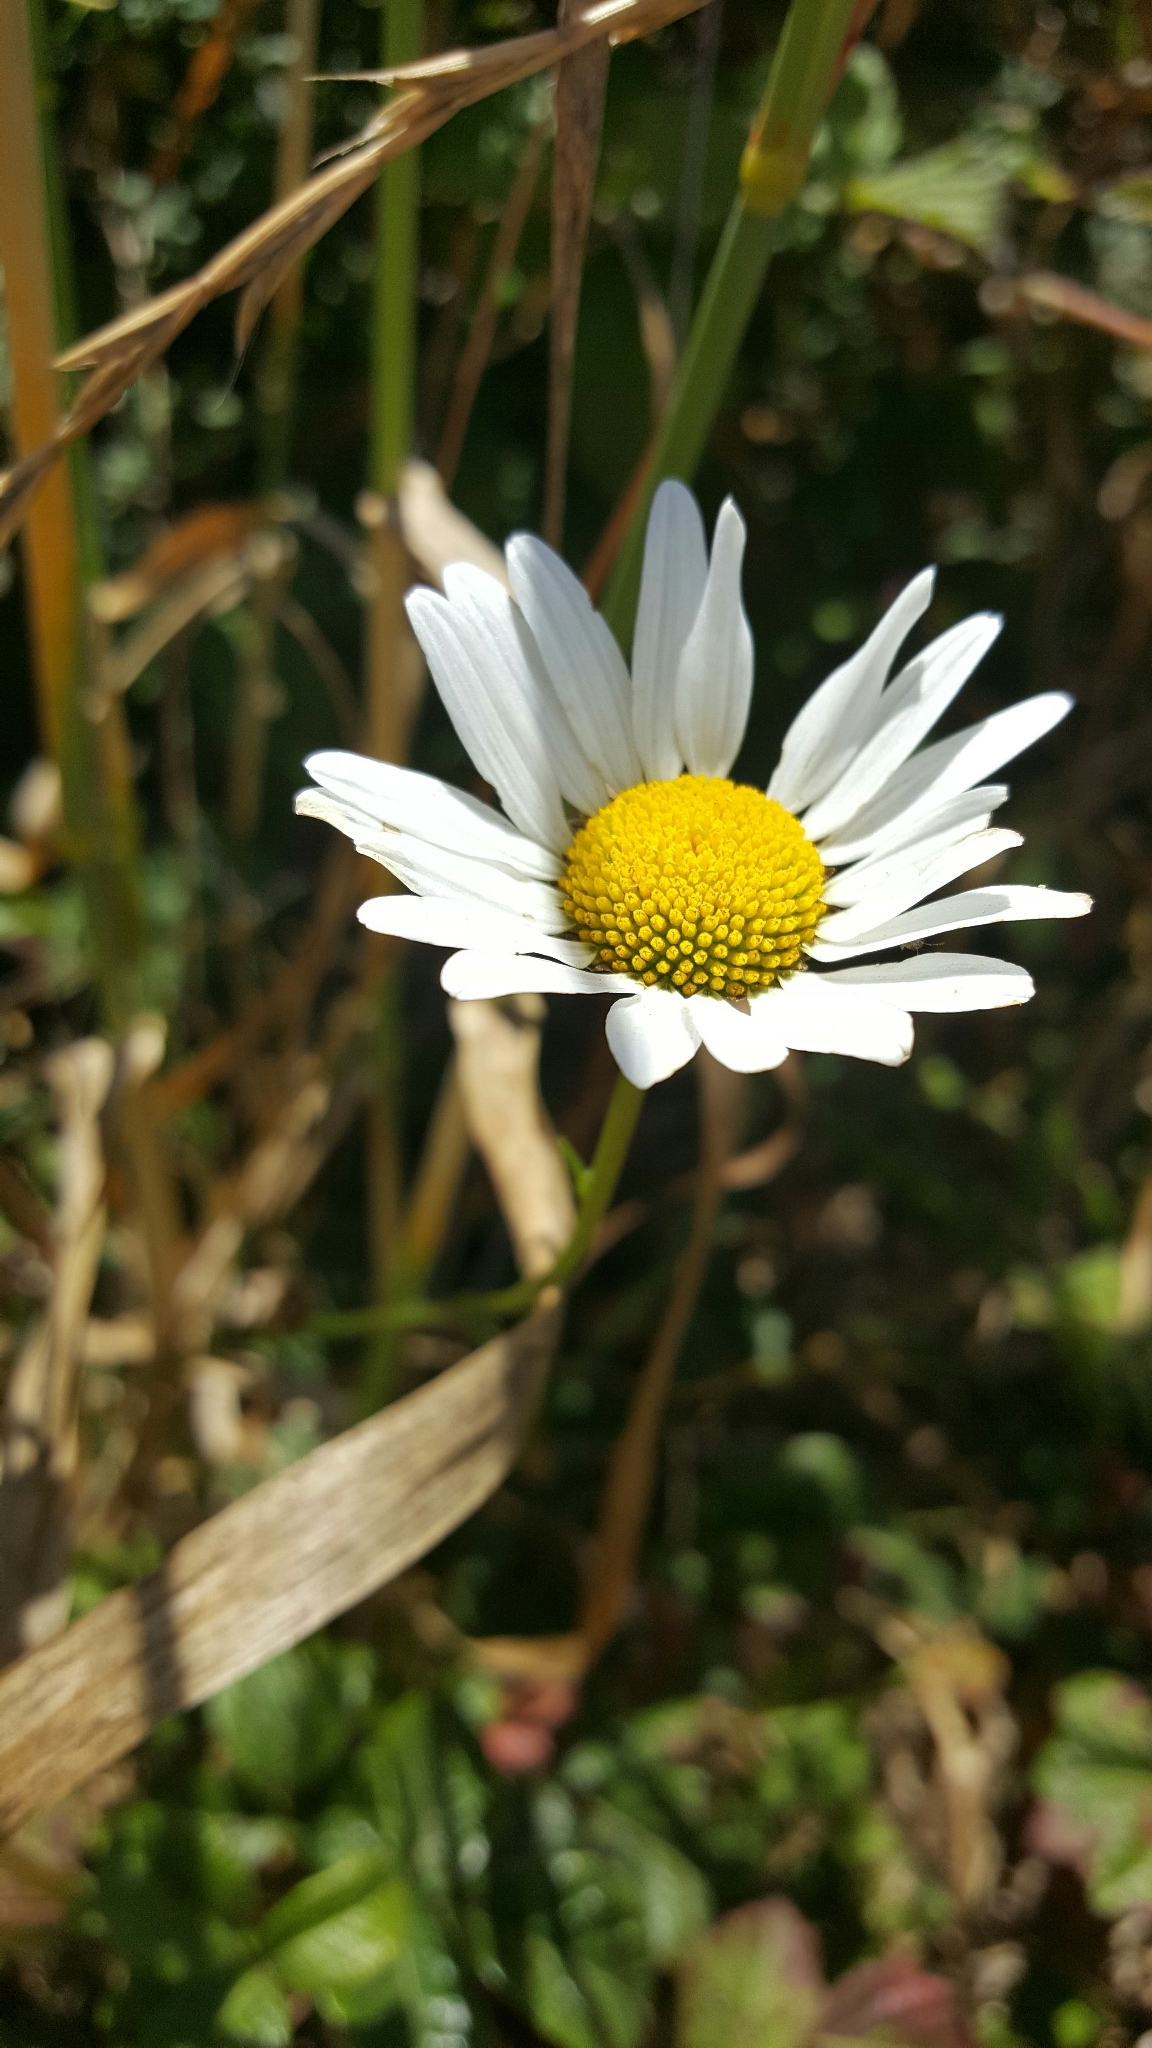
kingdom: Plantae
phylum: Tracheophyta
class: Magnoliopsida
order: Asterales
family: Asteraceae
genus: Leucanthemum
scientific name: Leucanthemum vulgare
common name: Oxeye daisy
